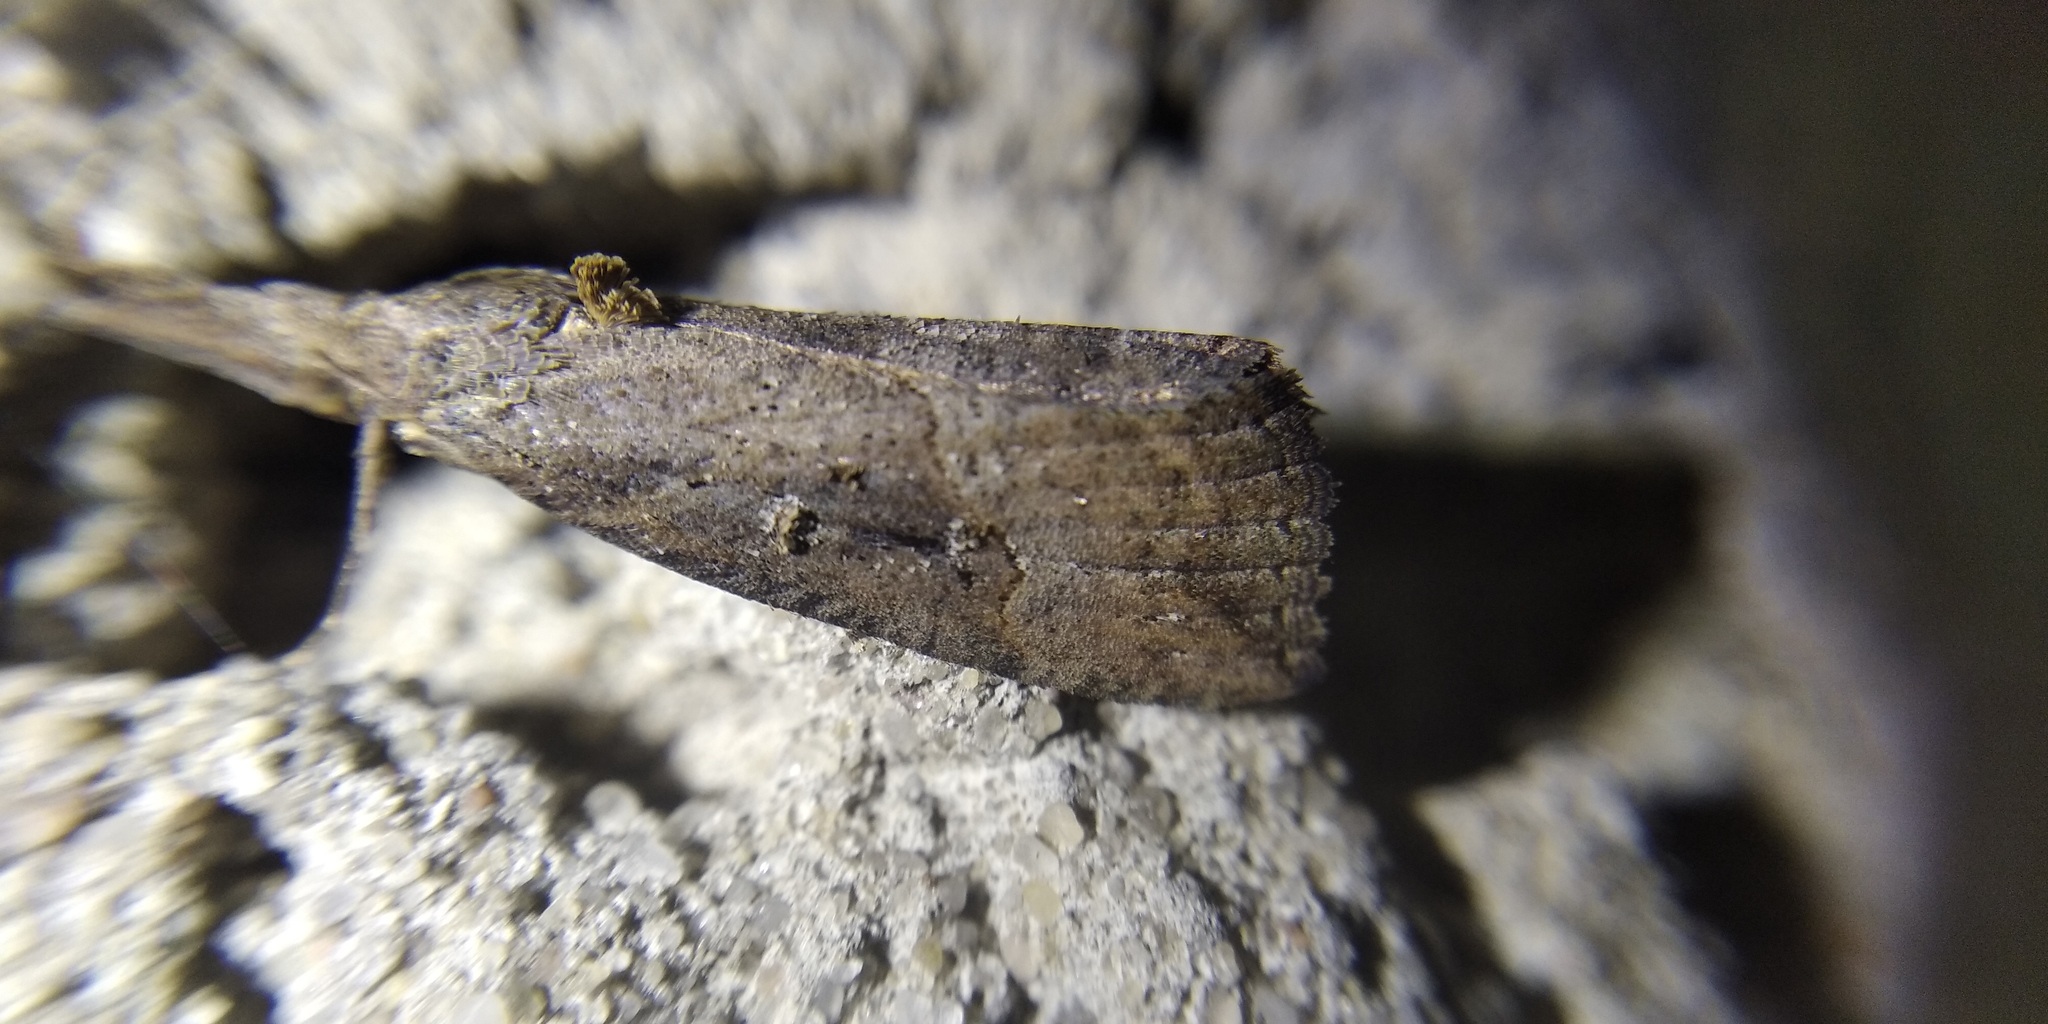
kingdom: Animalia
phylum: Arthropoda
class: Insecta
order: Lepidoptera
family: Erebidae
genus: Hypena
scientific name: Hypena rostralis
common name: Buttoned snout
